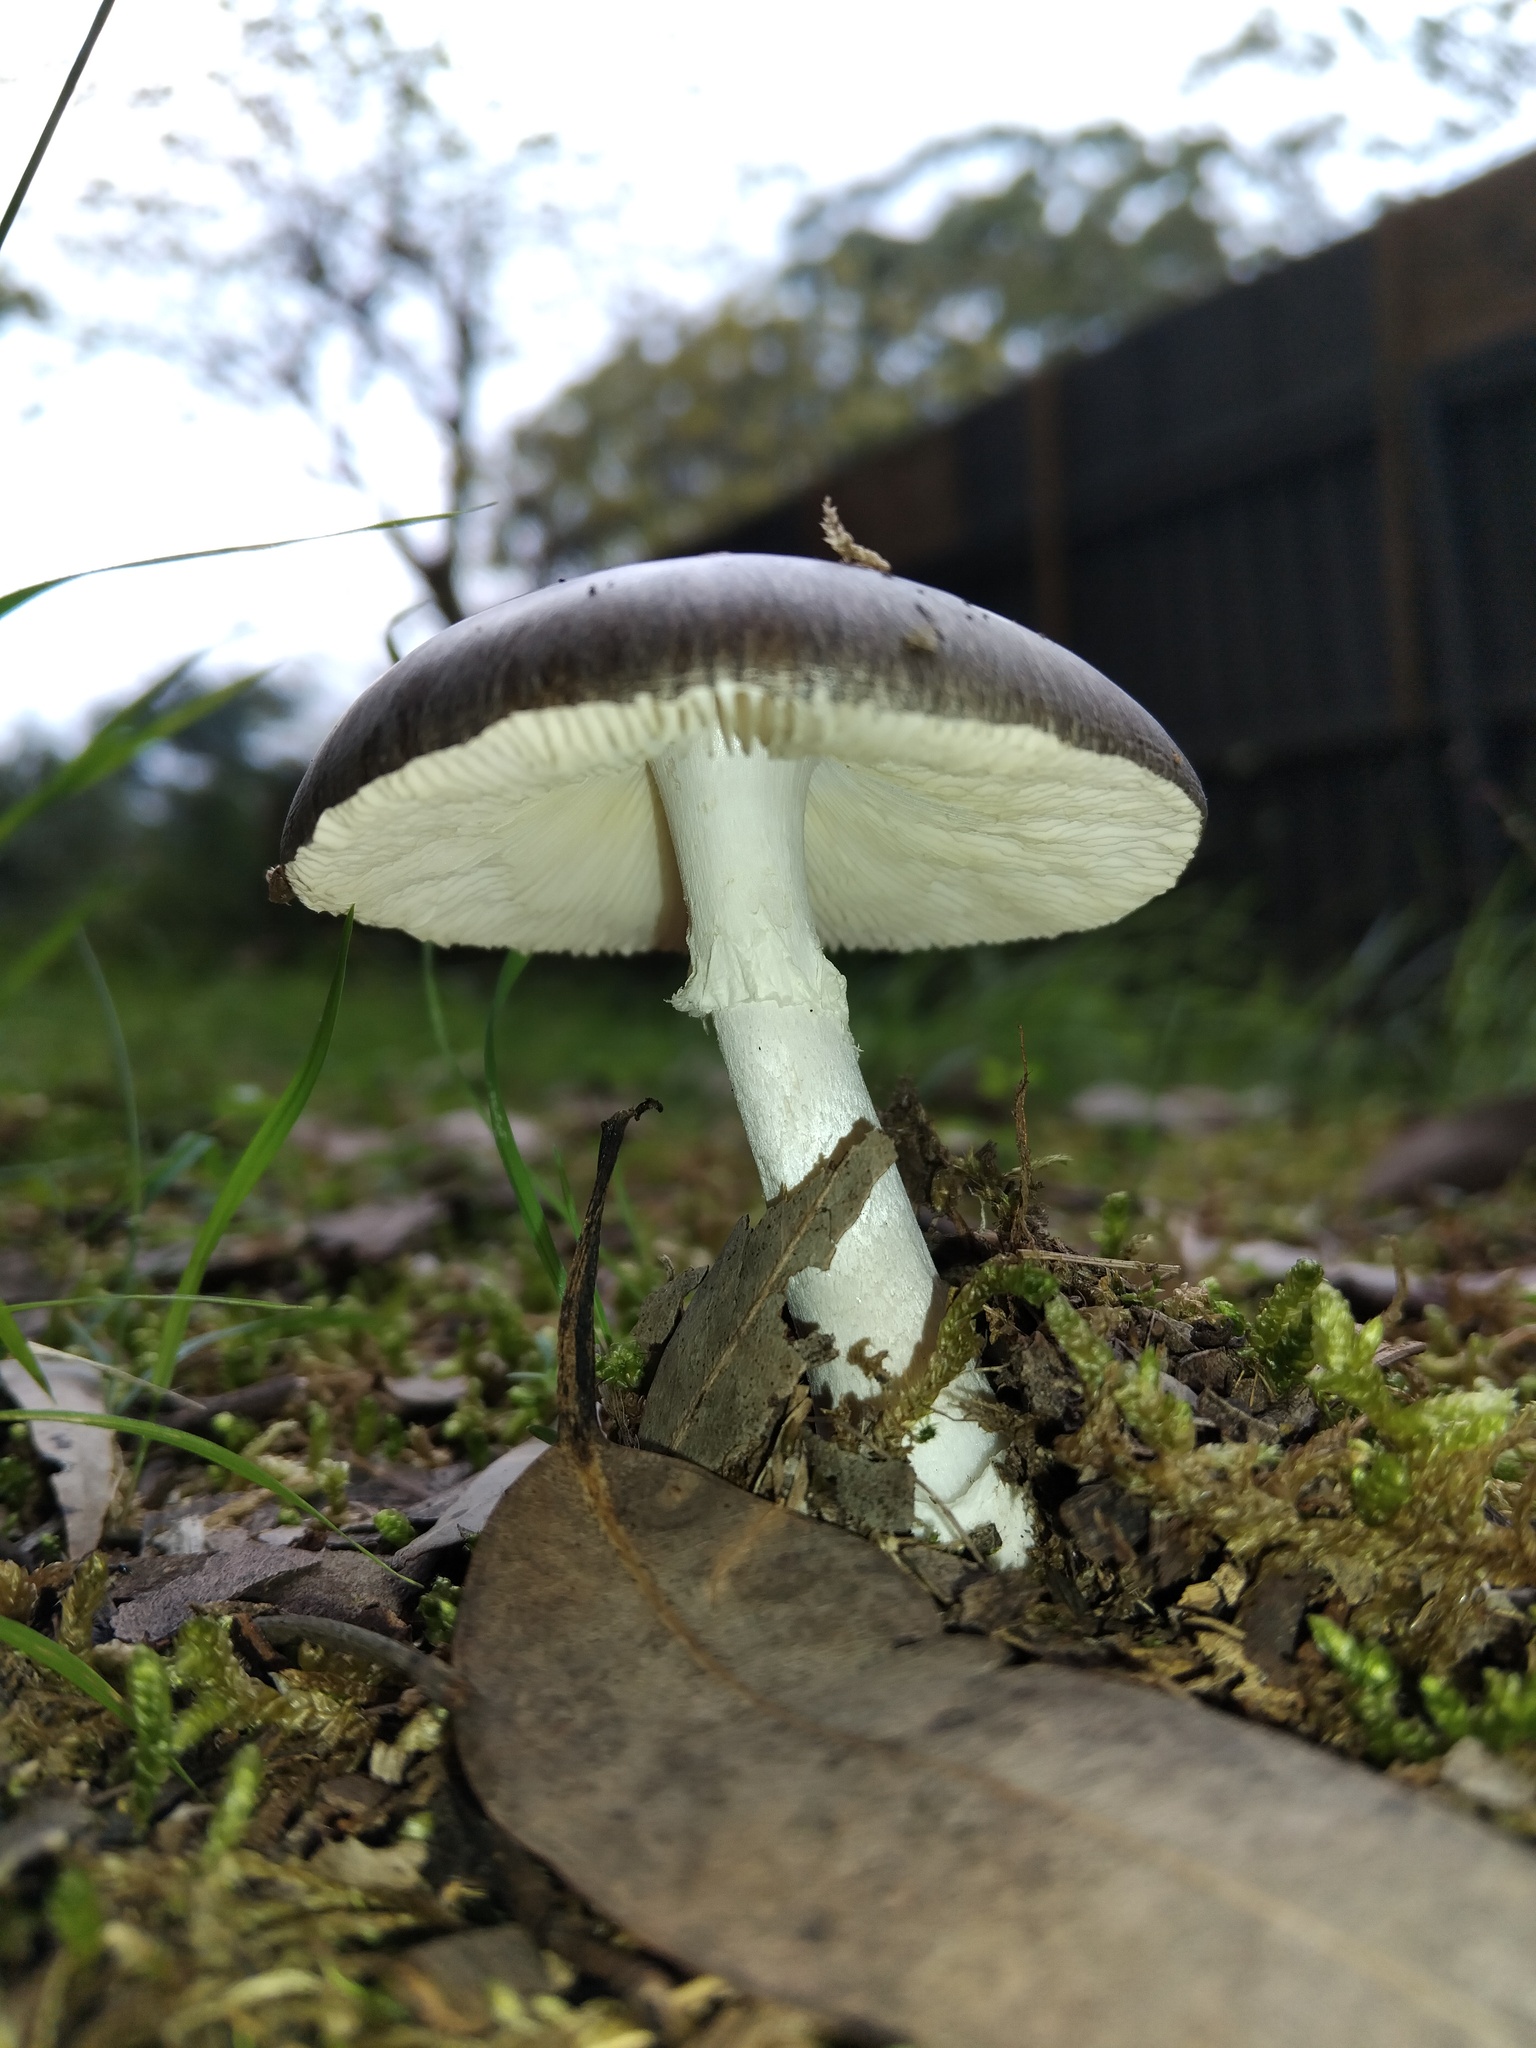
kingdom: Fungi
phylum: Basidiomycota
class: Agaricomycetes
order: Agaricales
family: Amanitaceae
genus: Amanita
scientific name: Amanita marmorata
